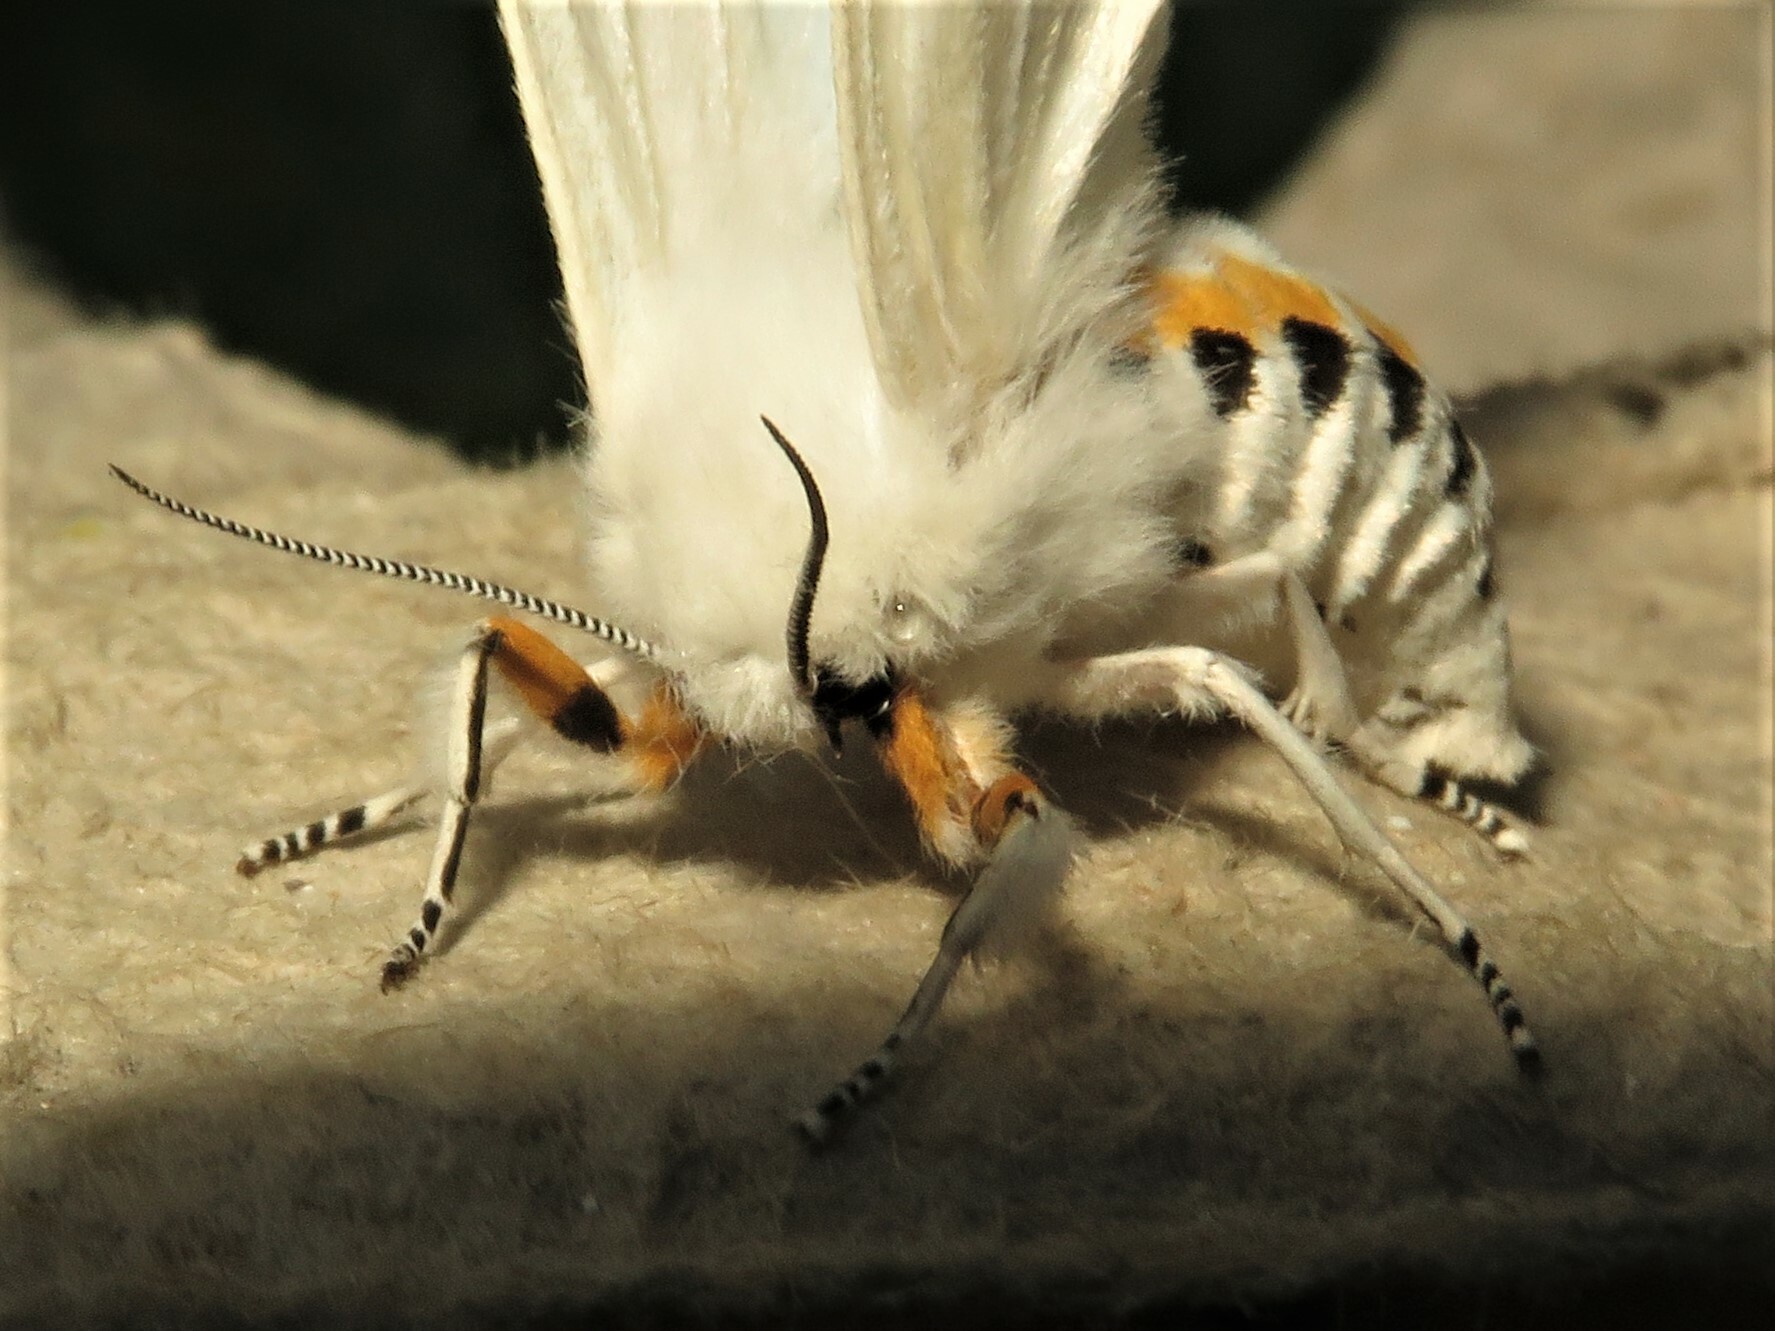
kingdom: Animalia
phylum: Arthropoda
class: Insecta
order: Lepidoptera
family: Erebidae
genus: Spilosoma
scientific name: Spilosoma virginica
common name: Virginia tiger moth
